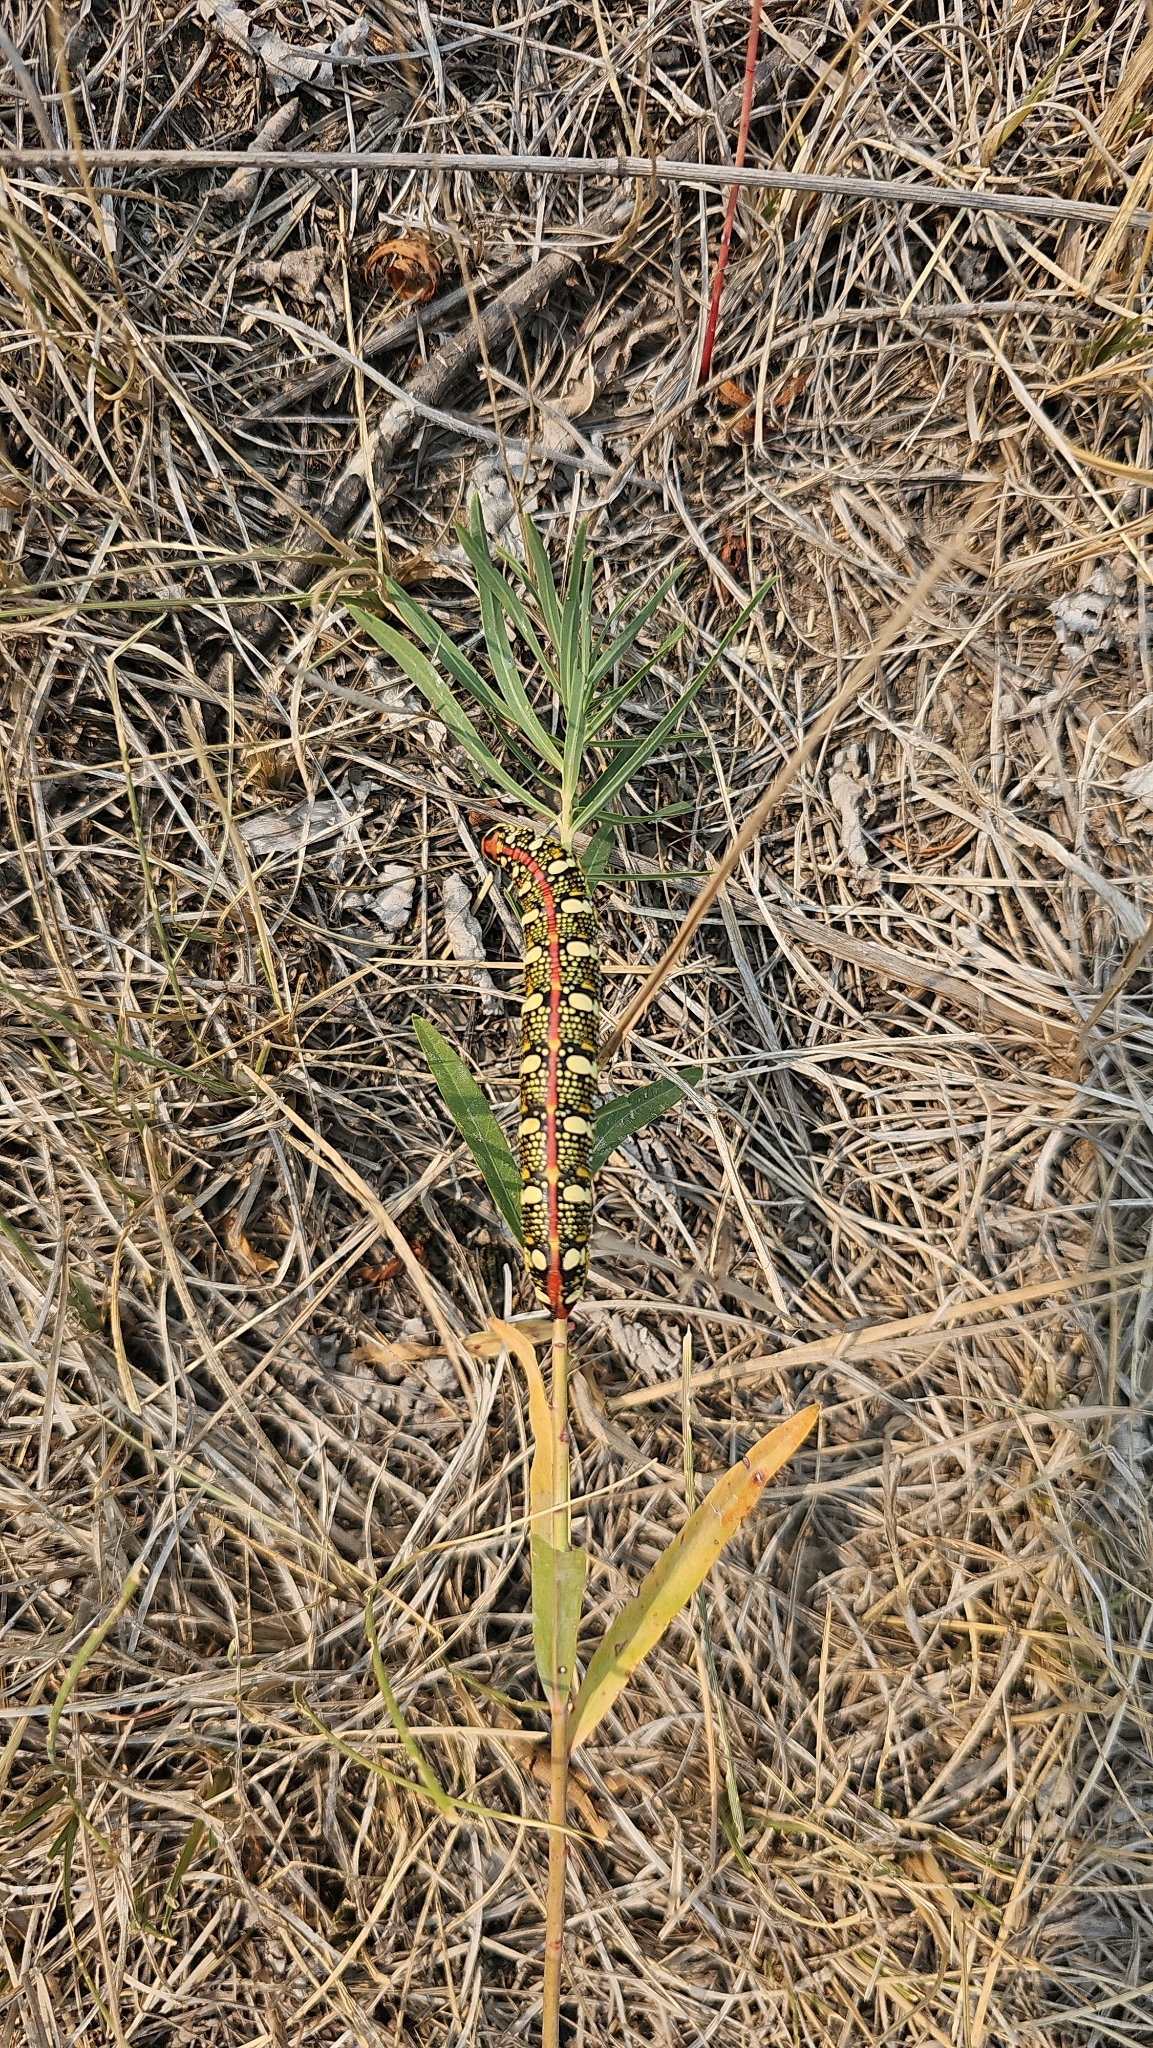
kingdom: Animalia
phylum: Arthropoda
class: Insecta
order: Lepidoptera
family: Sphingidae
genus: Hyles
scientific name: Hyles euphorbiae
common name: Spurge hawk-moth
